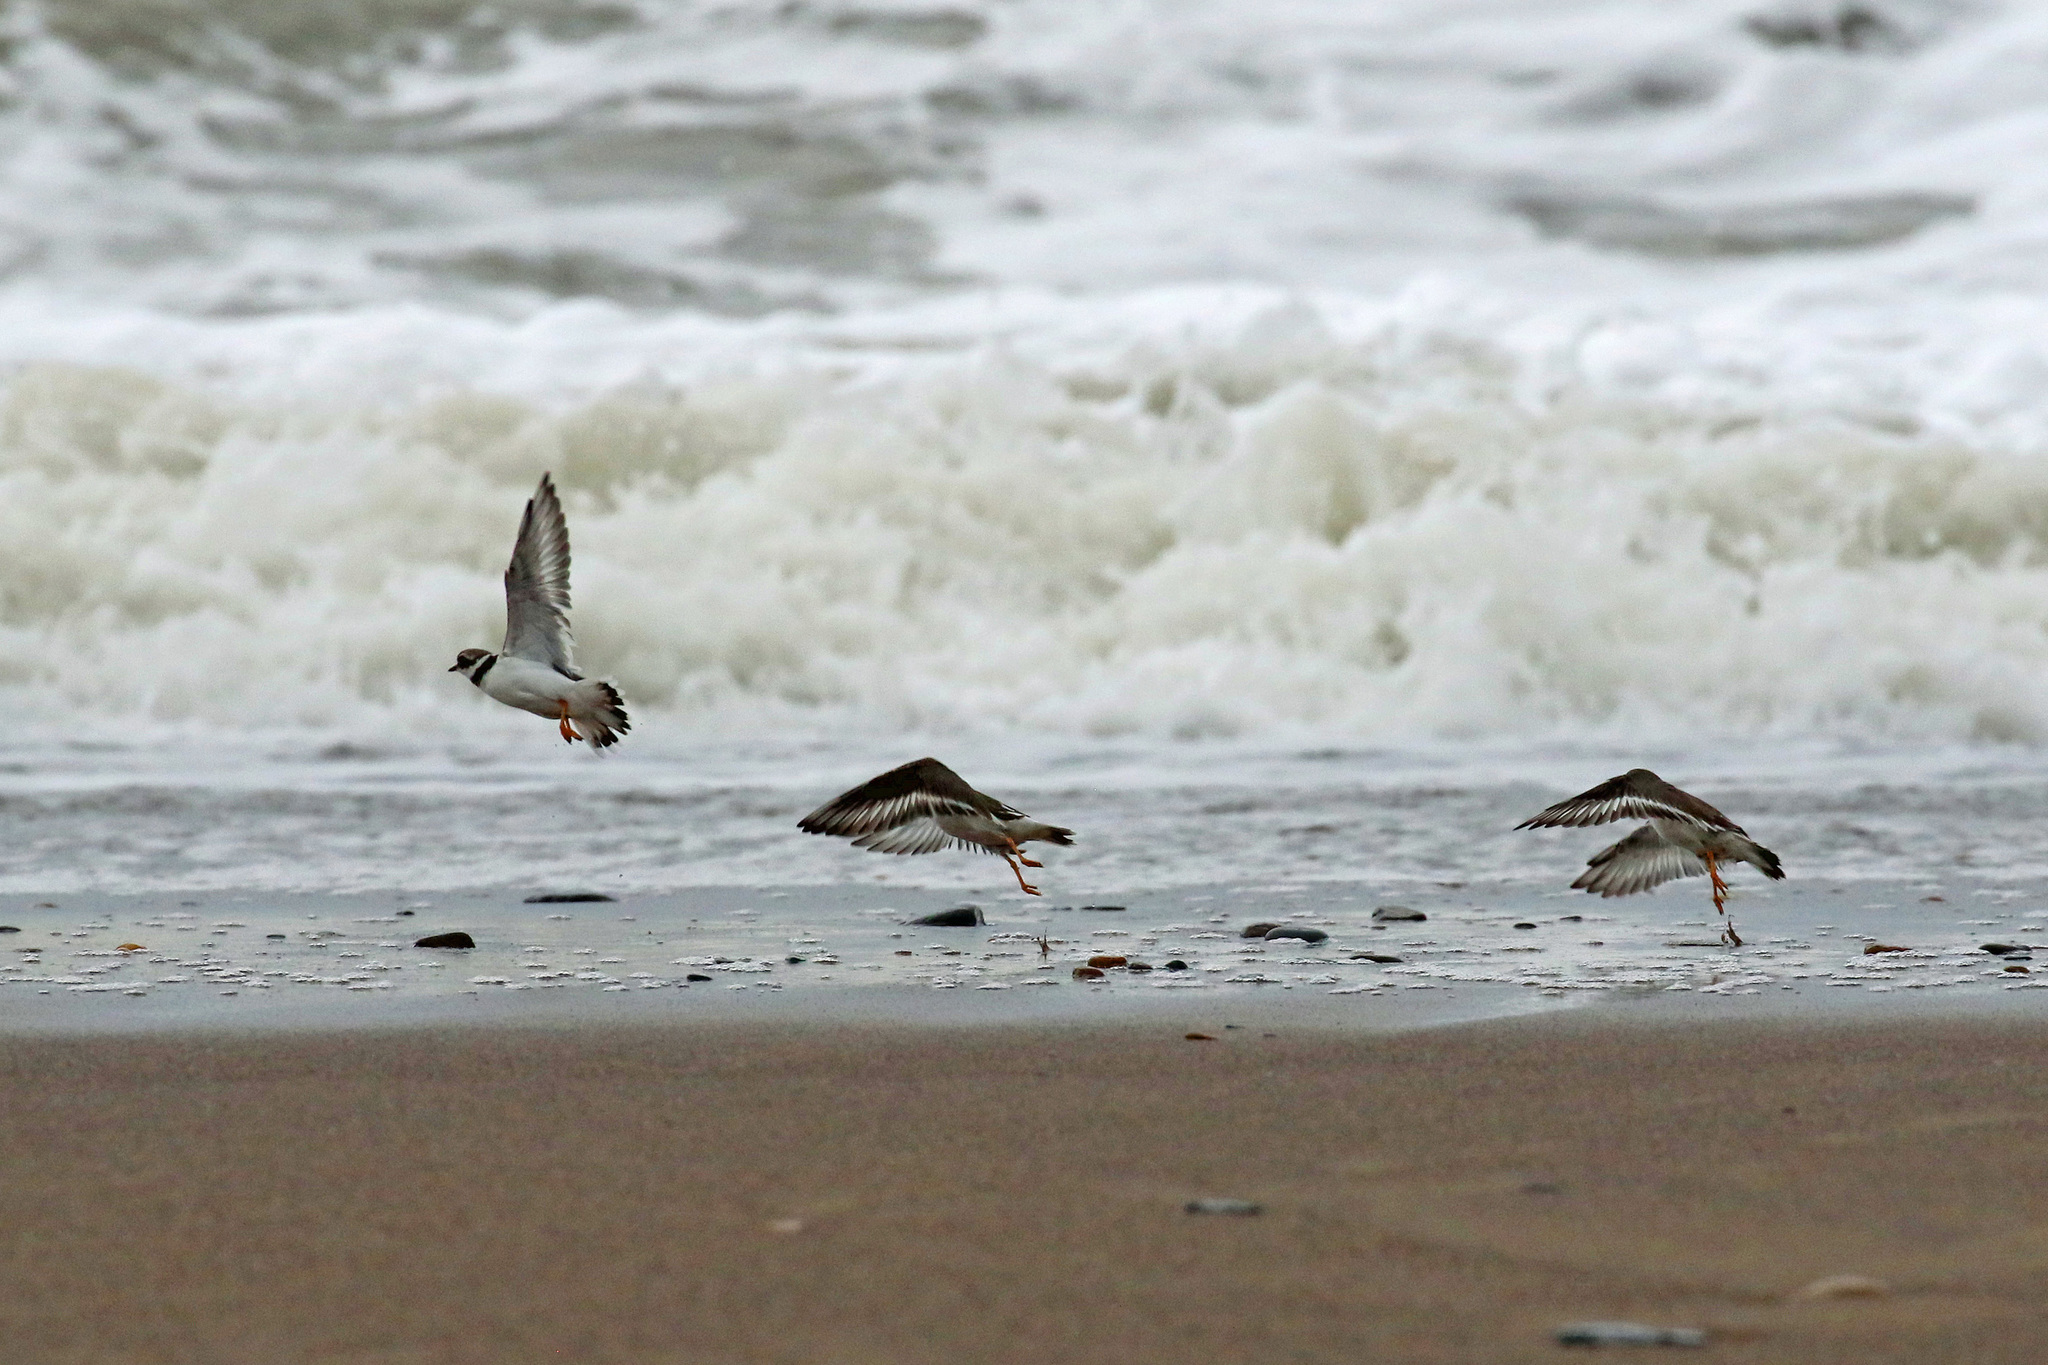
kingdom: Animalia
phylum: Chordata
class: Aves
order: Charadriiformes
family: Charadriidae
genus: Charadrius
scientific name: Charadrius hiaticula
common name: Common ringed plover
